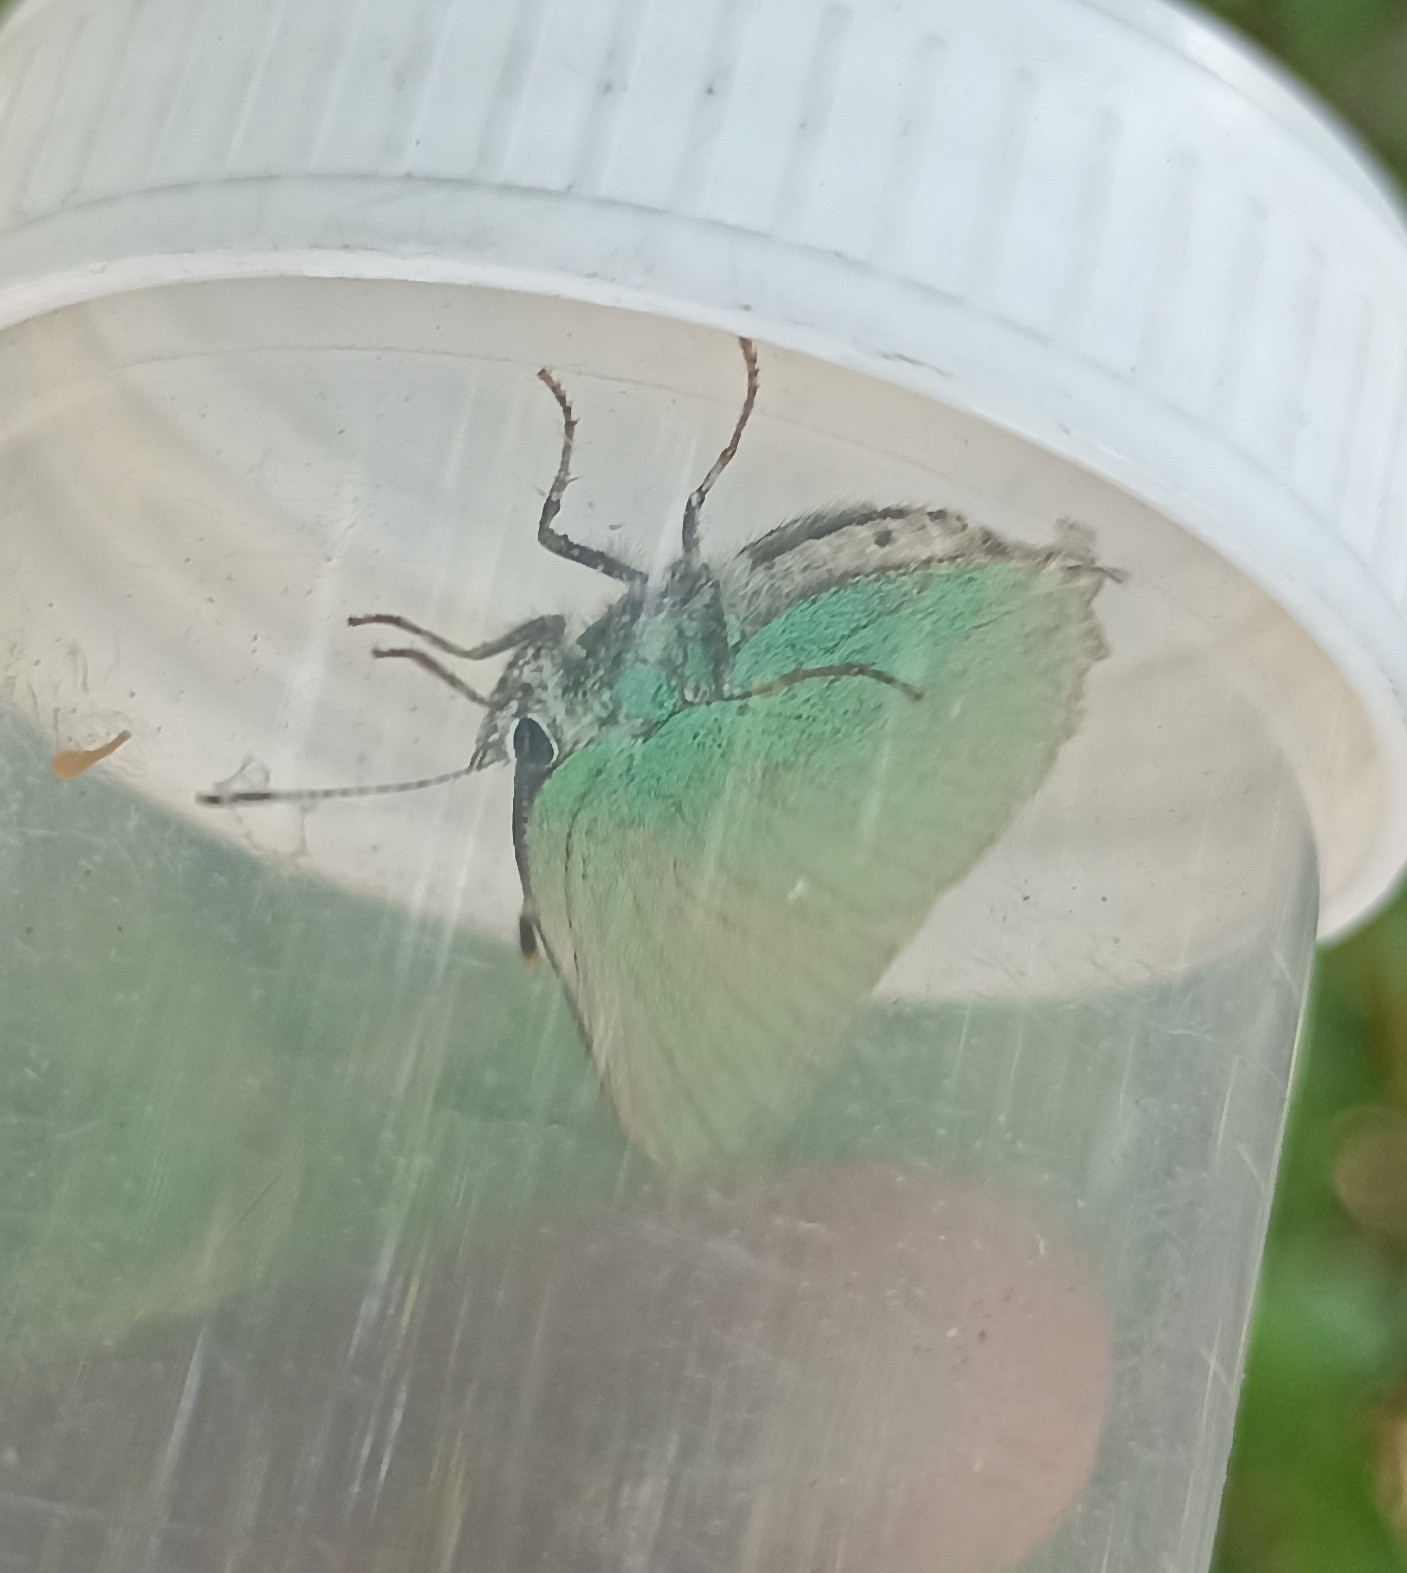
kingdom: Animalia
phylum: Arthropoda
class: Insecta
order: Lepidoptera
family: Lycaenidae
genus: Callophrys
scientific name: Callophrys rubi
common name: Green hairstreak
